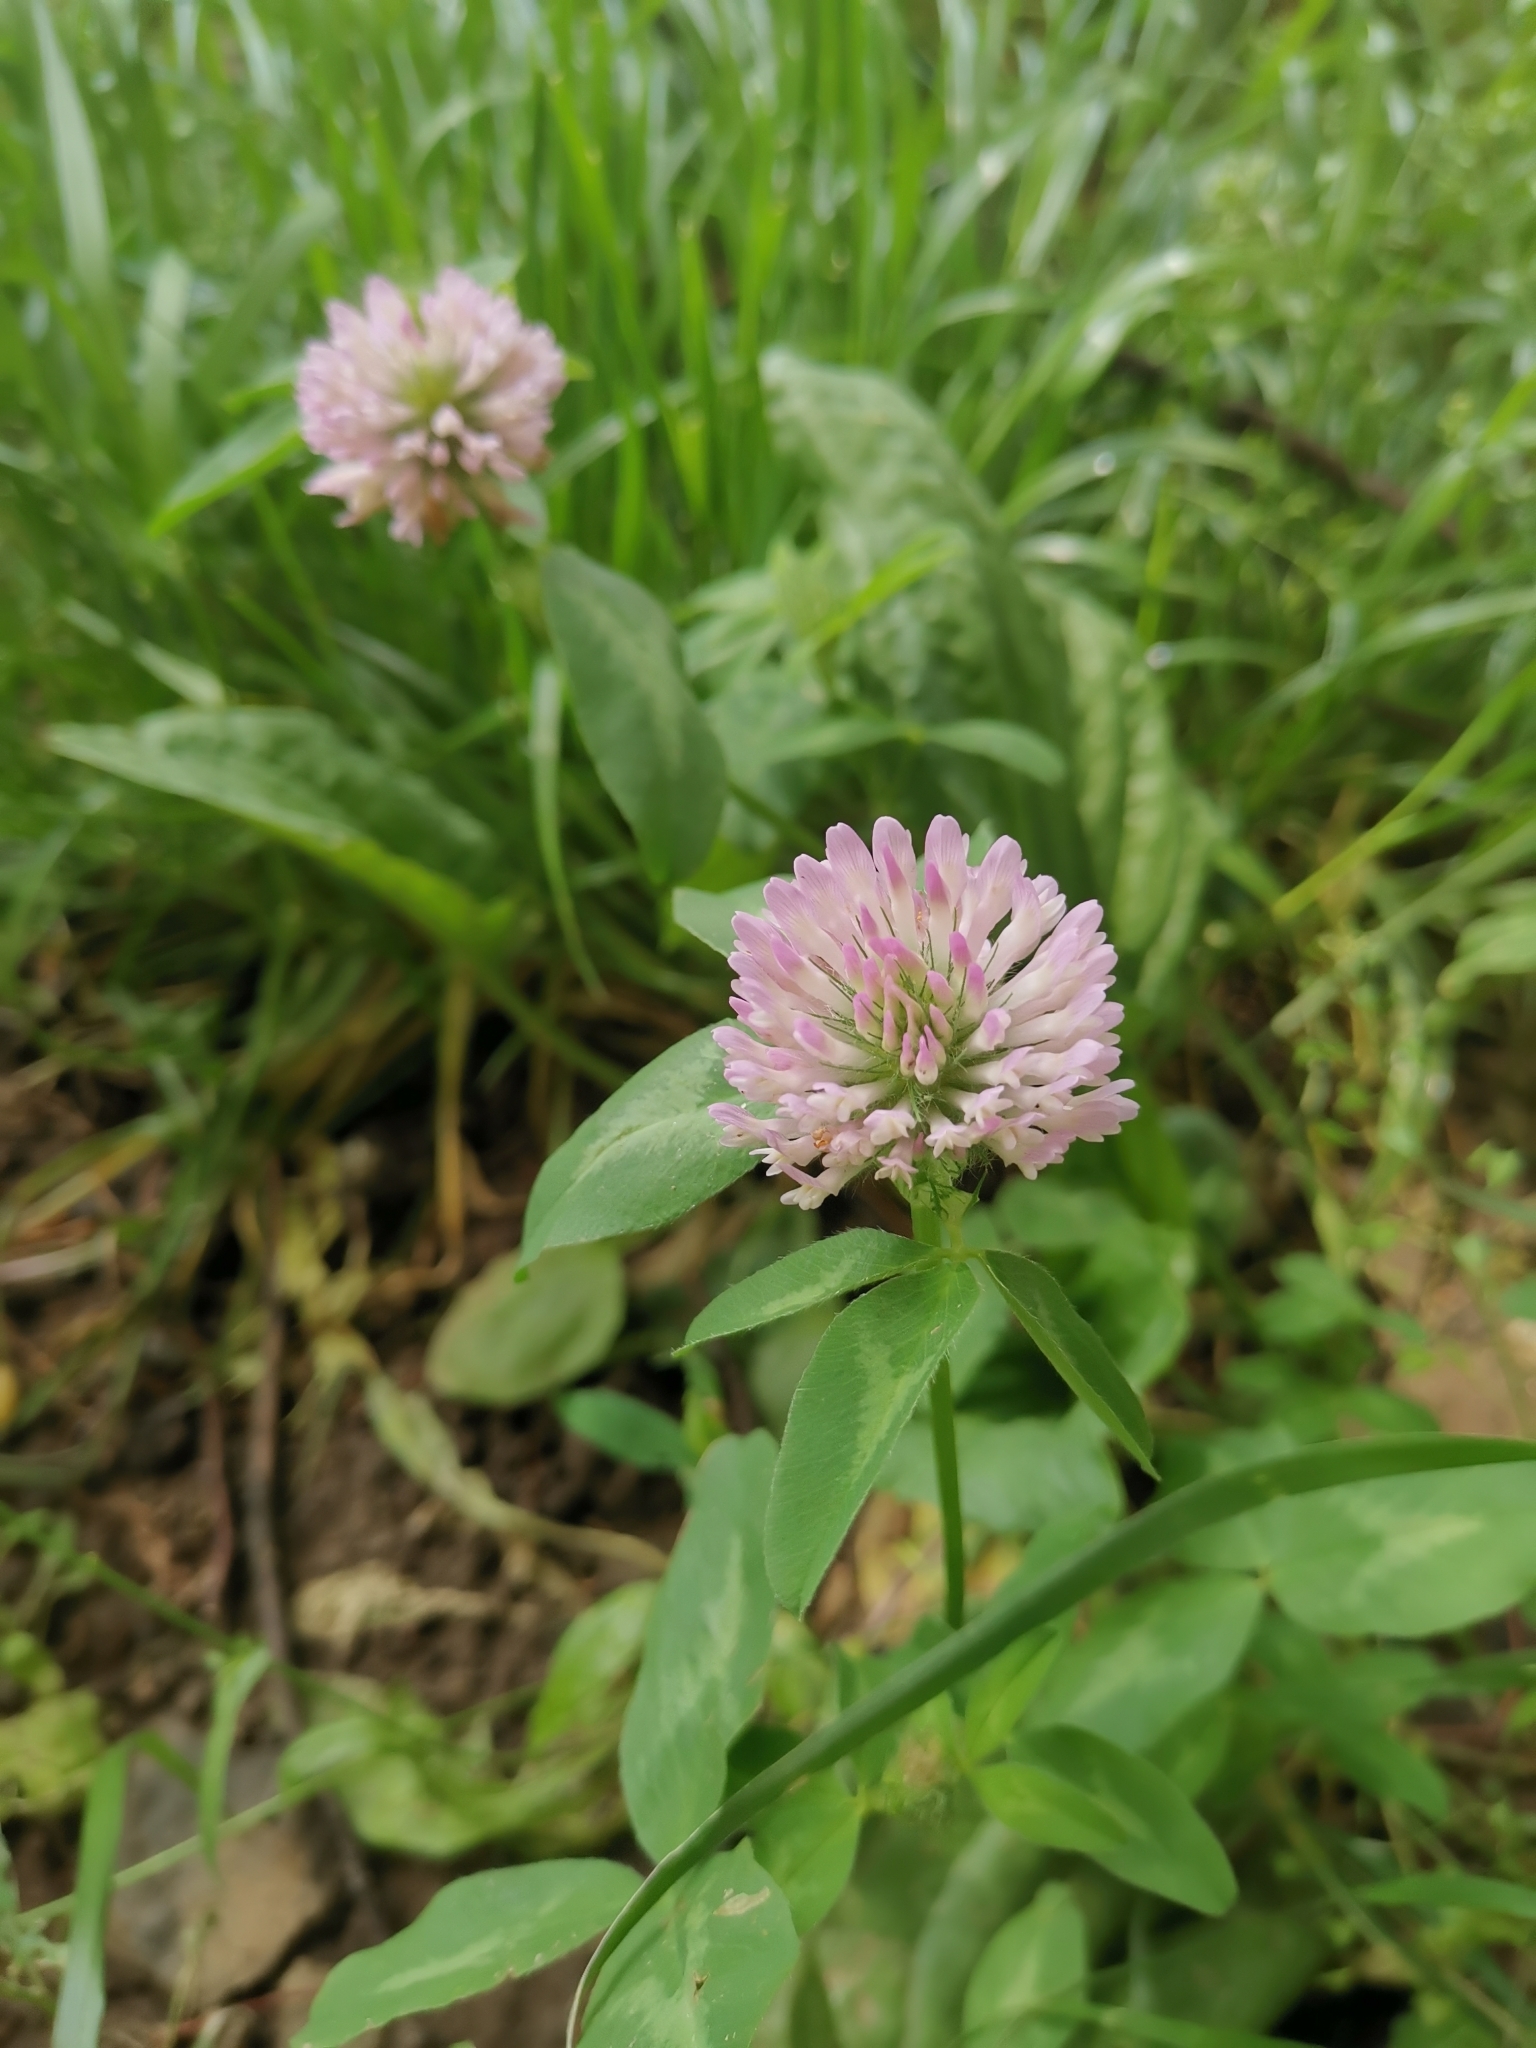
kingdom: Plantae
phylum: Tracheophyta
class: Magnoliopsida
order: Fabales
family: Fabaceae
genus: Trifolium
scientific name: Trifolium pratense
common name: Red clover
